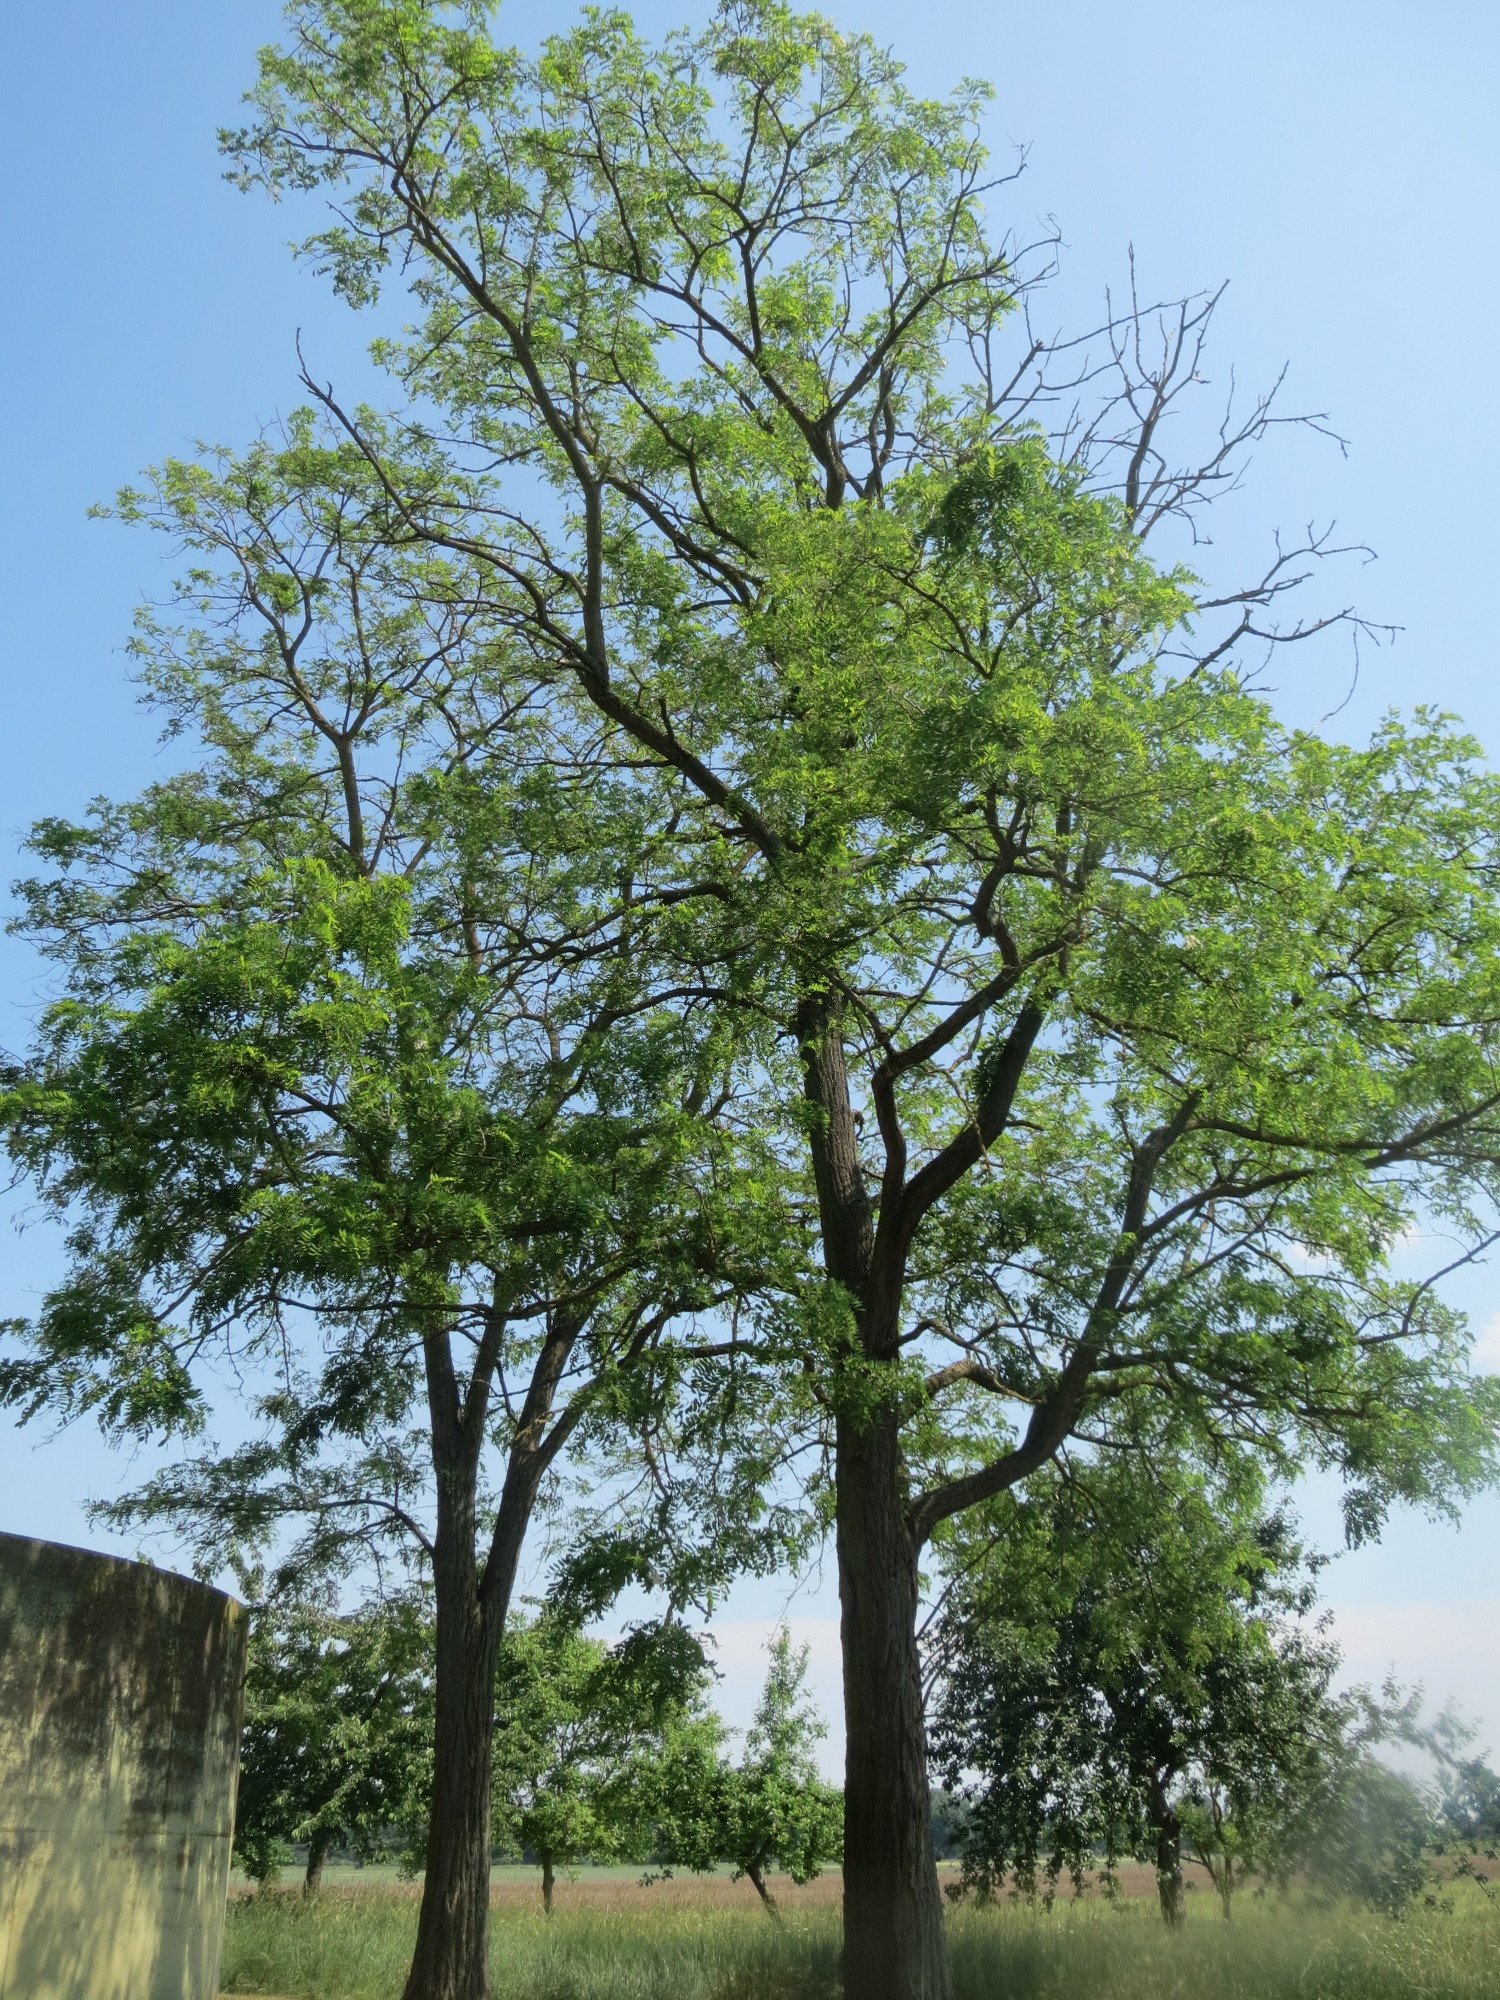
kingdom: Plantae
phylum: Tracheophyta
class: Magnoliopsida
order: Fabales
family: Fabaceae
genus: Robinia
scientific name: Robinia pseudoacacia
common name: Black locust
